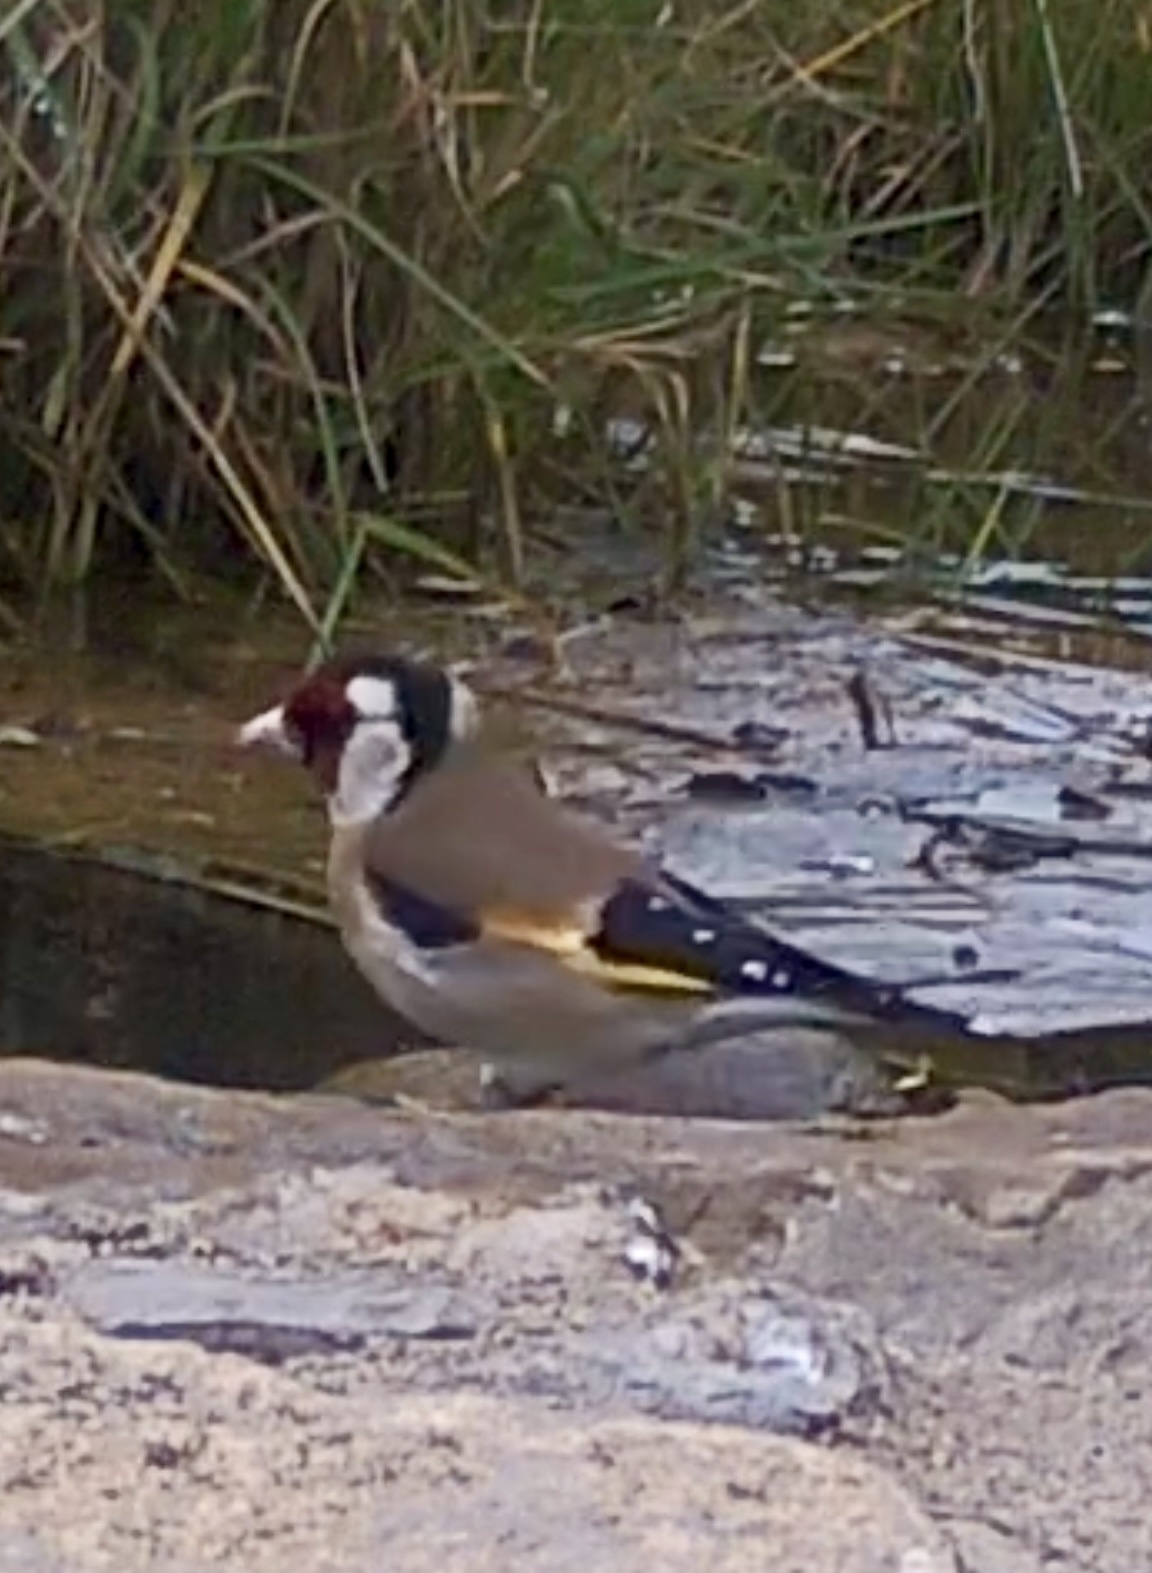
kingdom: Animalia
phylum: Chordata
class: Aves
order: Passeriformes
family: Fringillidae
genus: Carduelis
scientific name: Carduelis carduelis
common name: European goldfinch
